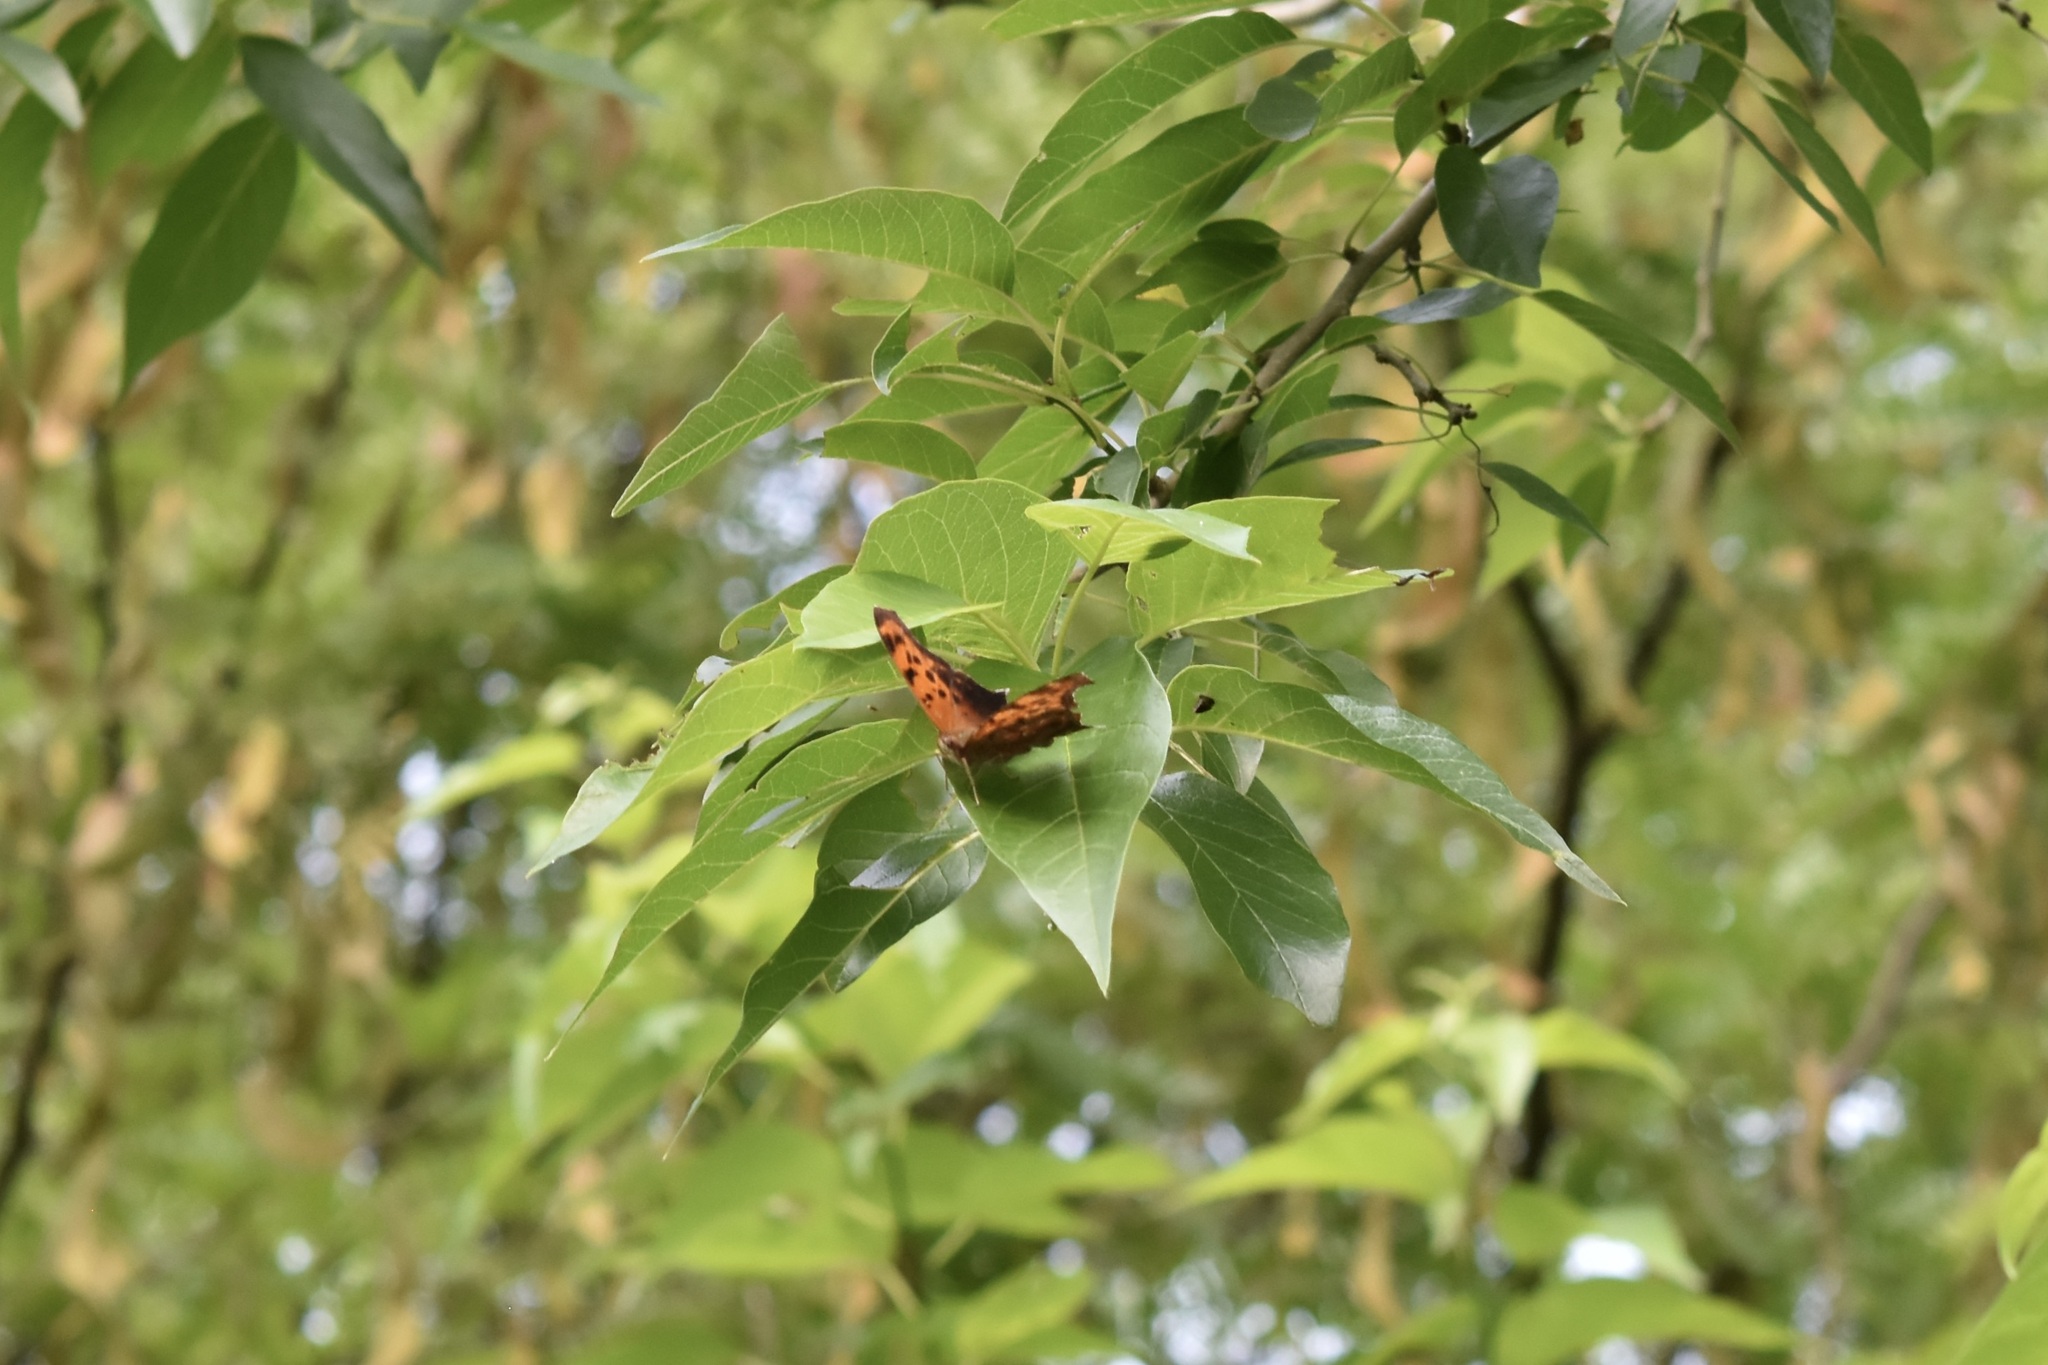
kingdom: Animalia
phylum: Arthropoda
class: Insecta
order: Lepidoptera
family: Nymphalidae
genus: Polygonia
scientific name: Polygonia interrogationis
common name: Question mark
